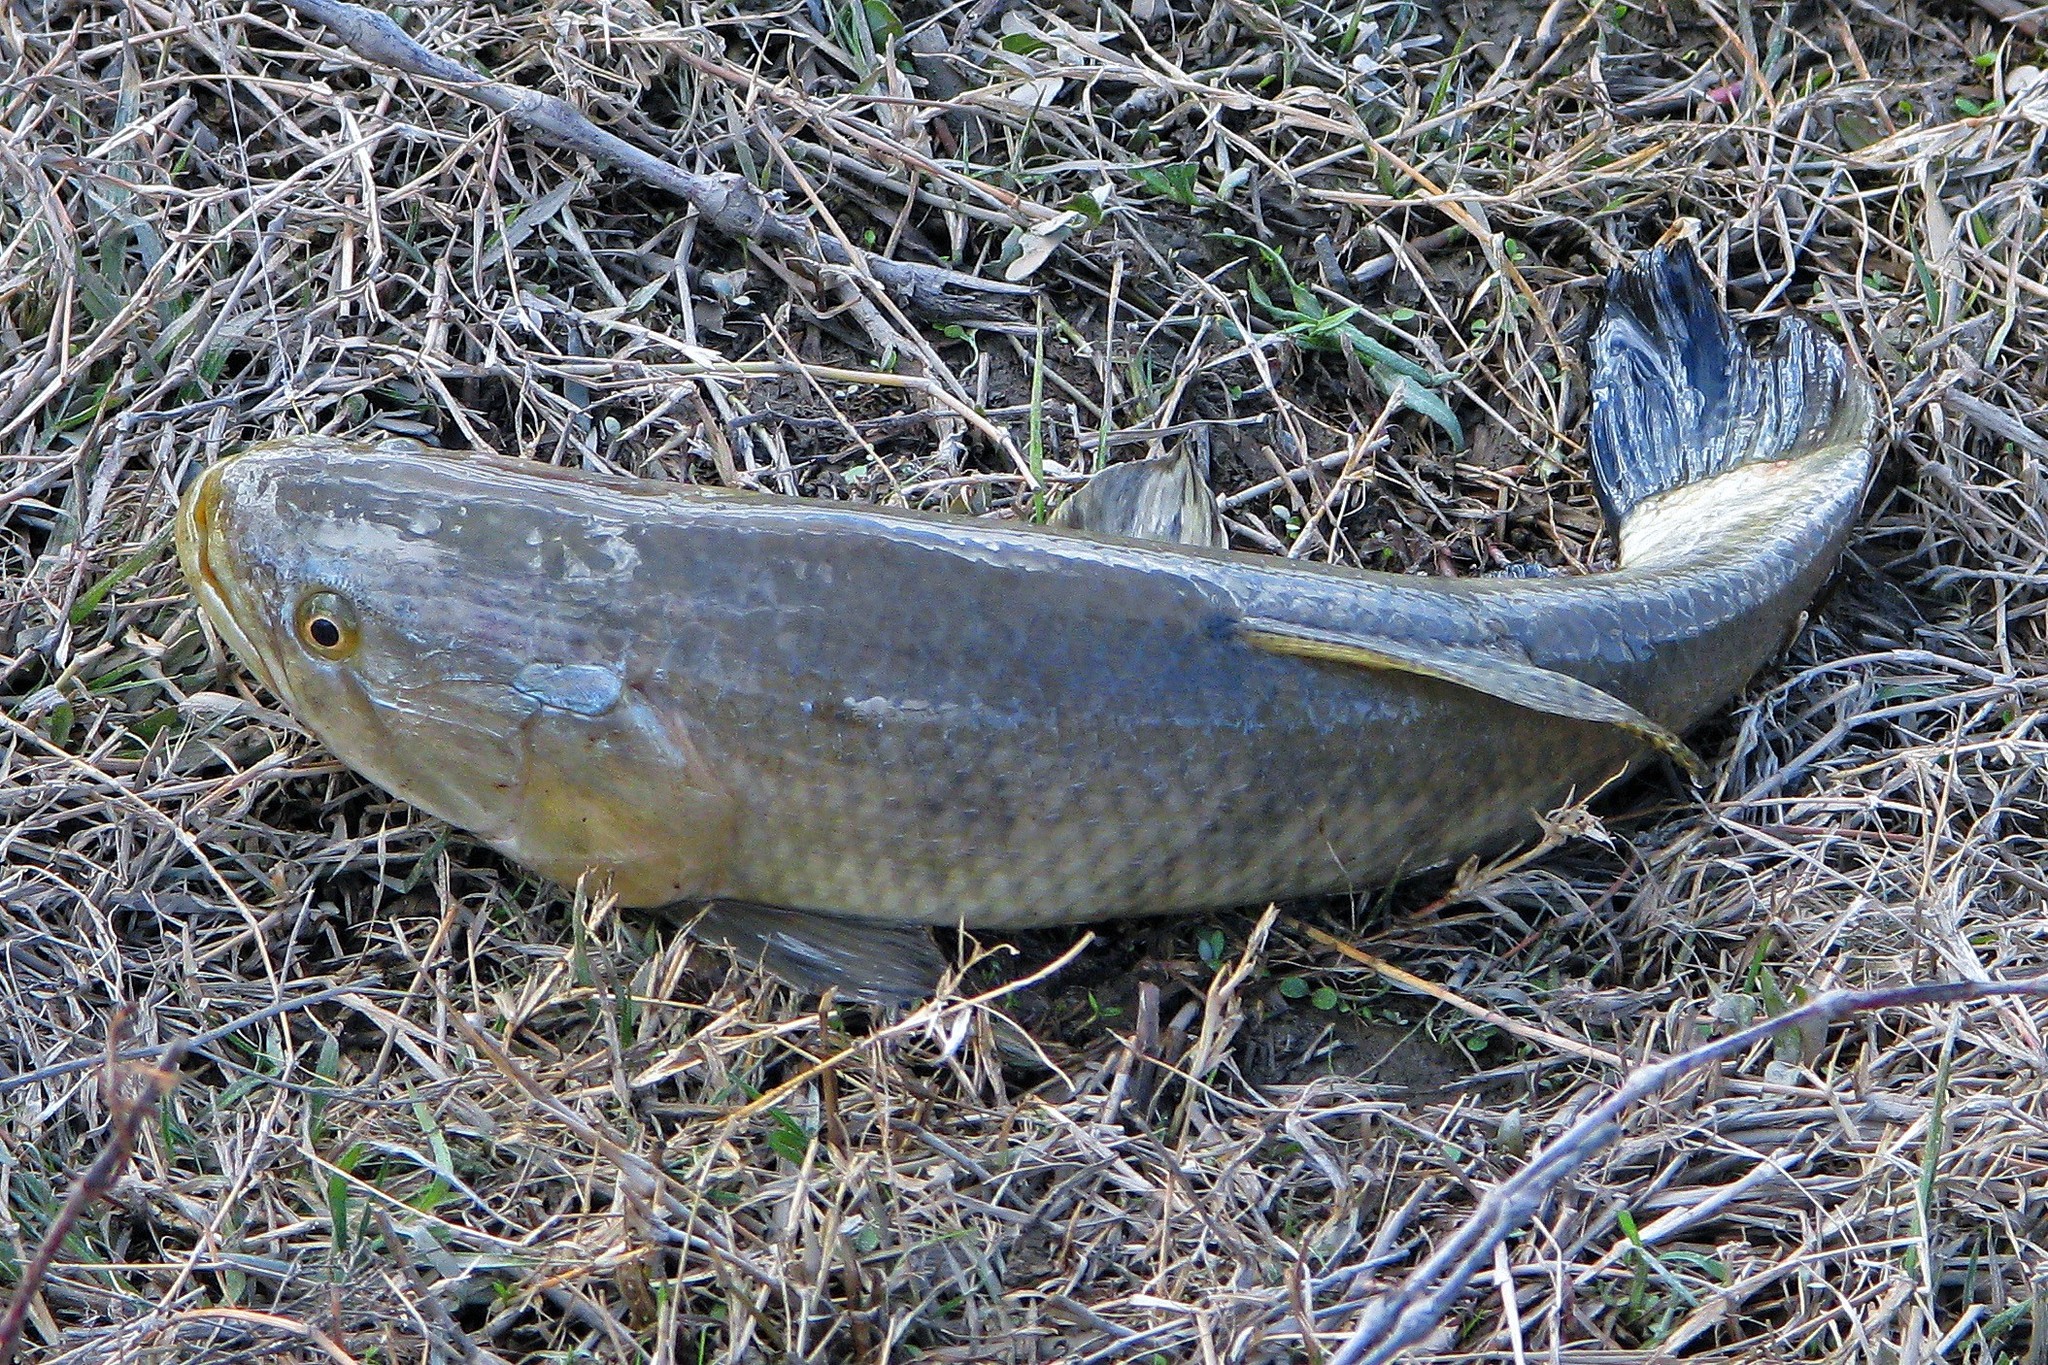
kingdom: Animalia
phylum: Chordata
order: Characiformes
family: Erythrinidae
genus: Hoplias
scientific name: Hoplias argentinensis
